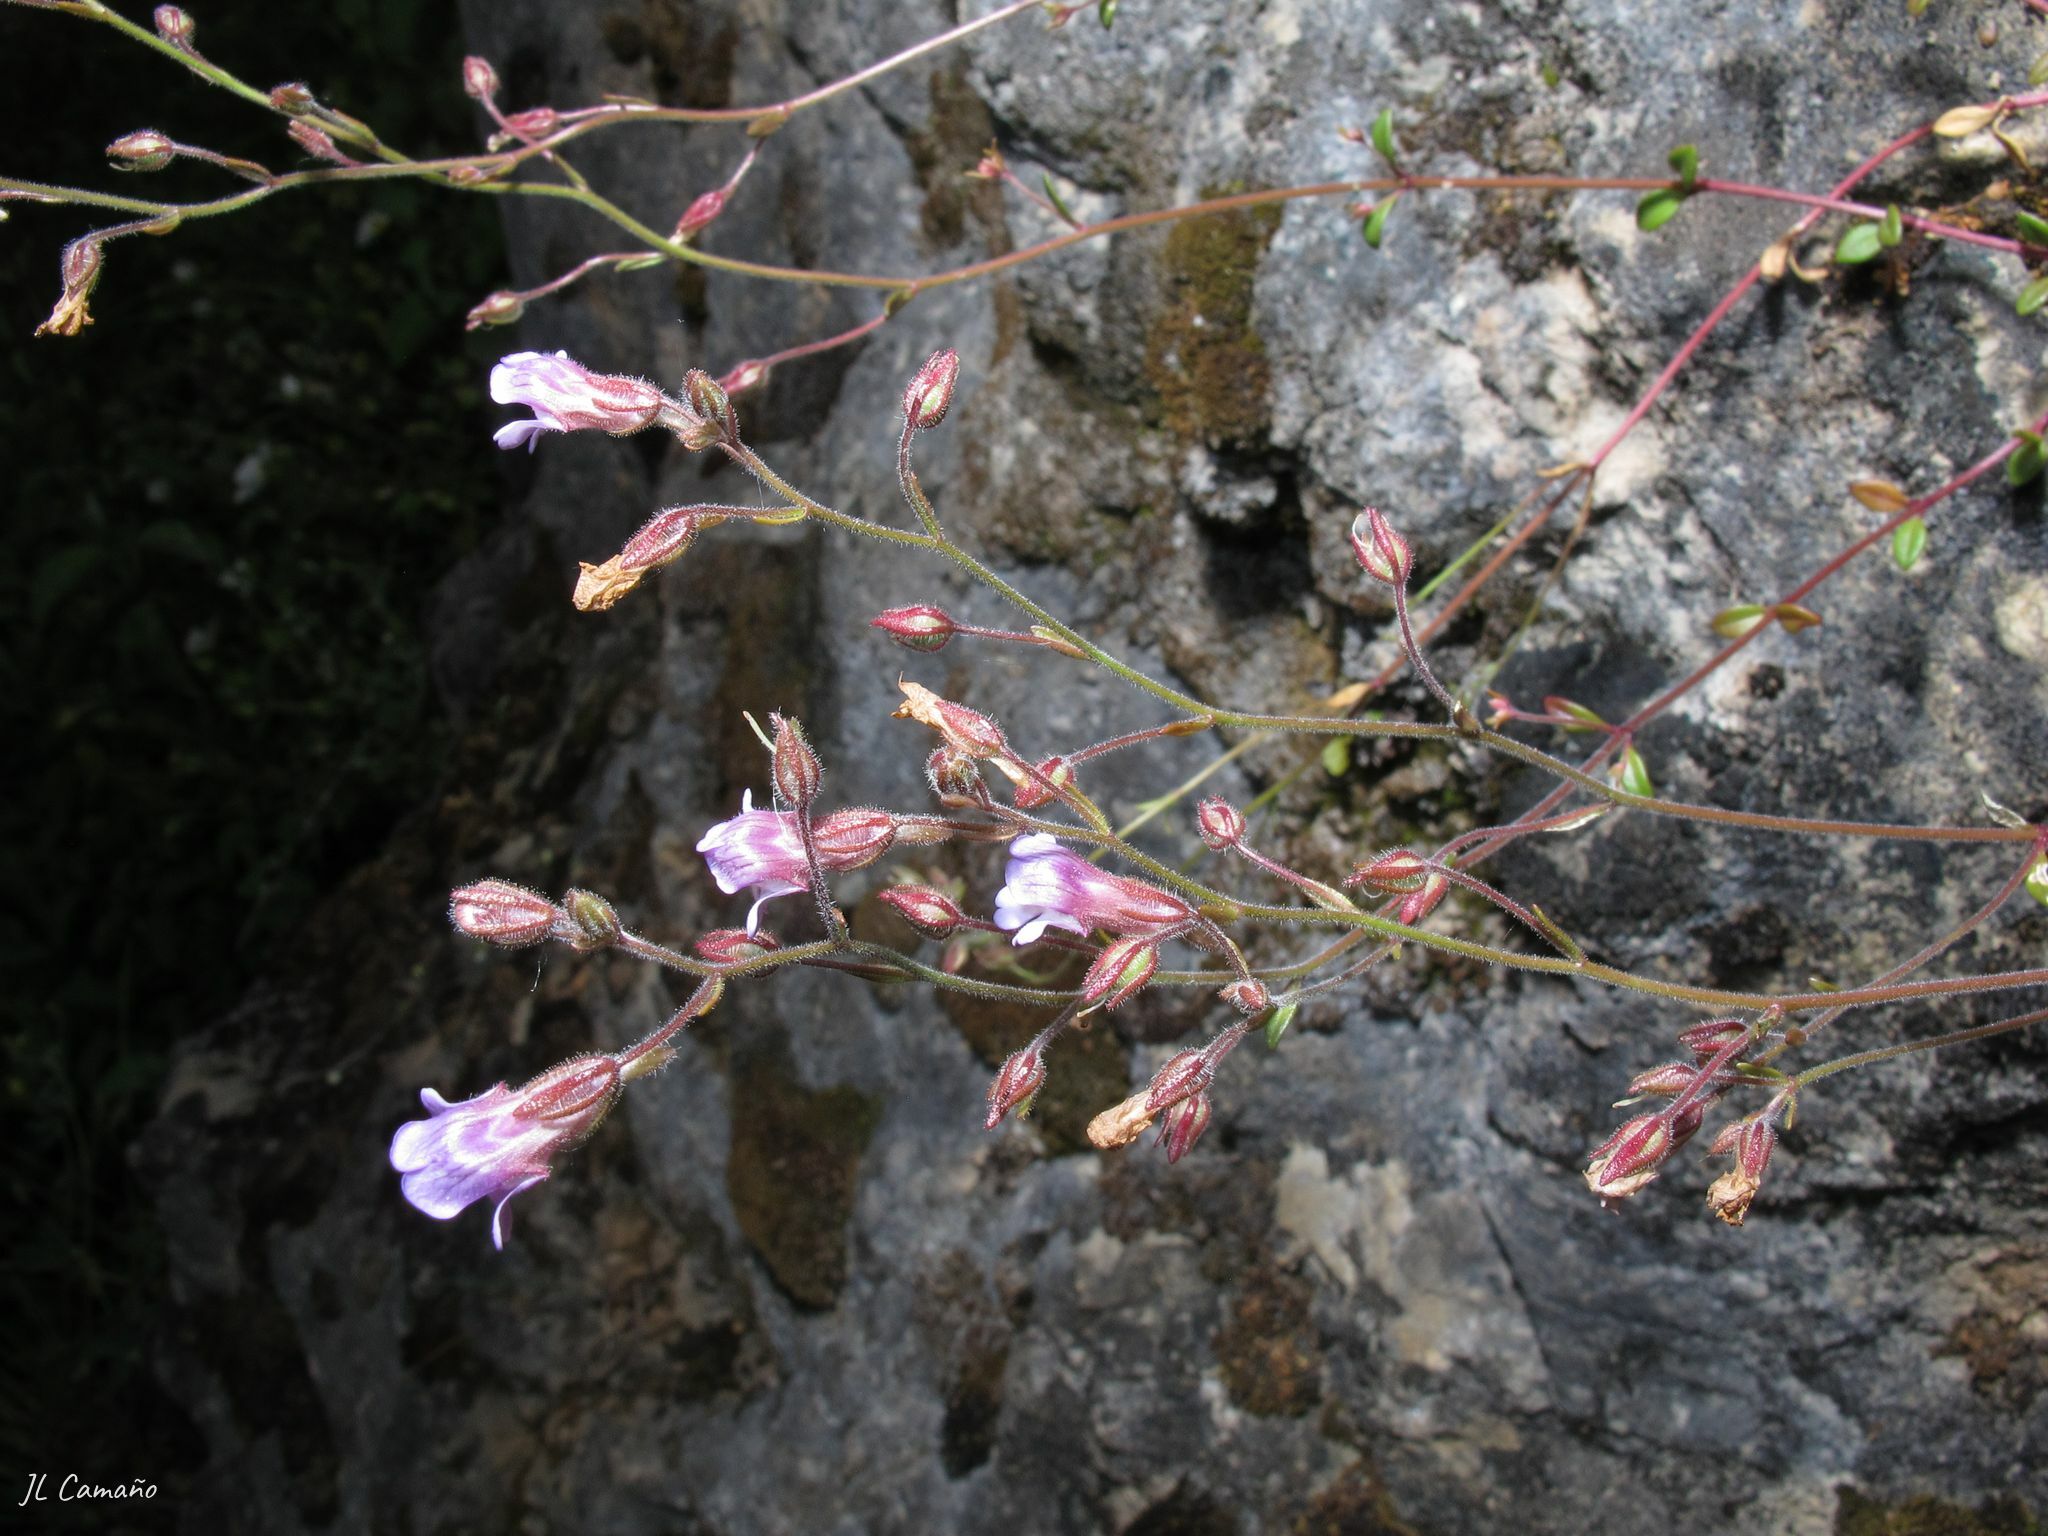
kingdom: Plantae
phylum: Tracheophyta
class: Magnoliopsida
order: Lamiales
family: Plantaginaceae
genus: Chaenorhinum
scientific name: Chaenorhinum origanifolium
